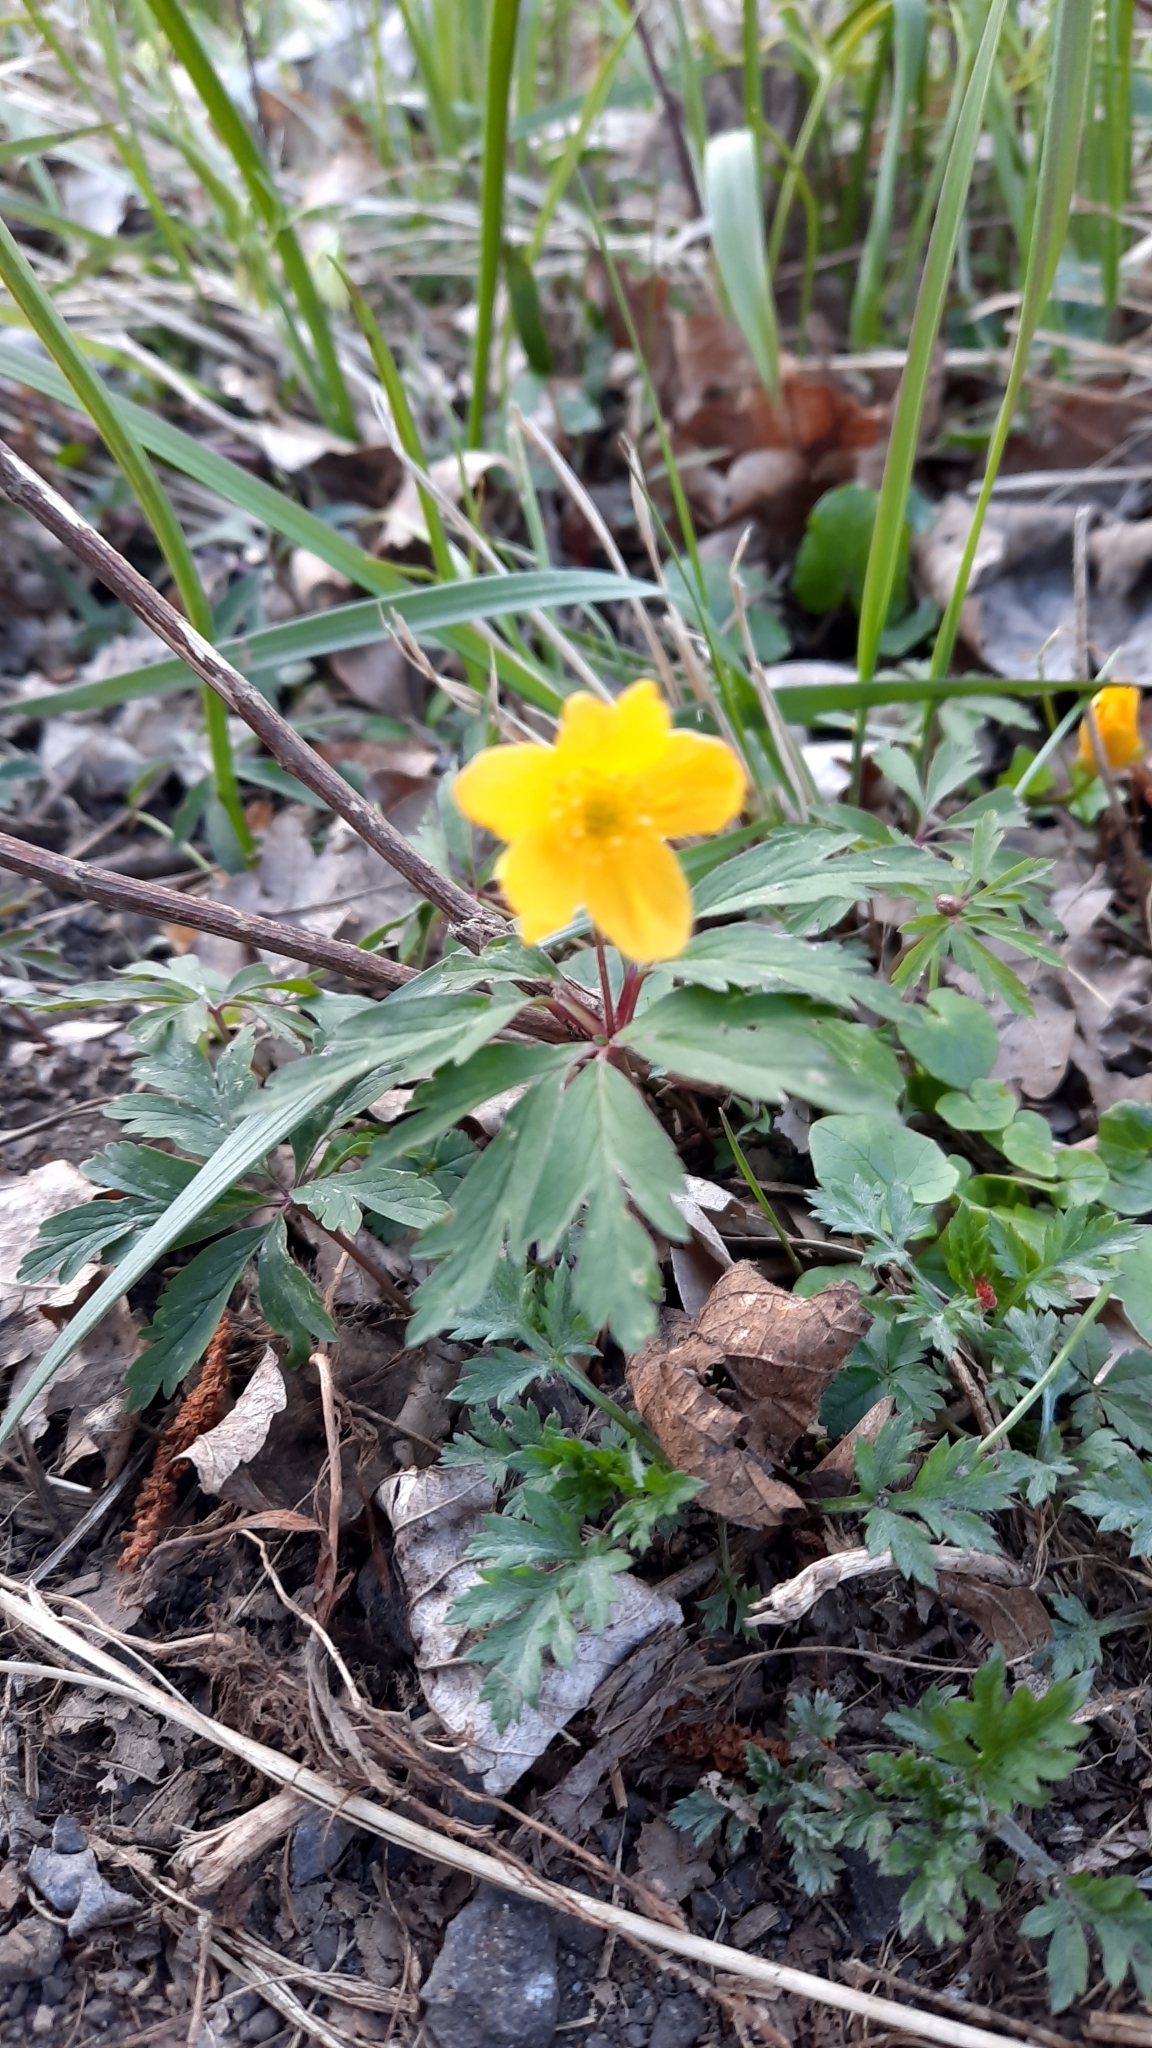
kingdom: Plantae
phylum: Tracheophyta
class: Magnoliopsida
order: Ranunculales
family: Ranunculaceae
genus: Anemone
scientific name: Anemone ranunculoides
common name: Yellow anemone
